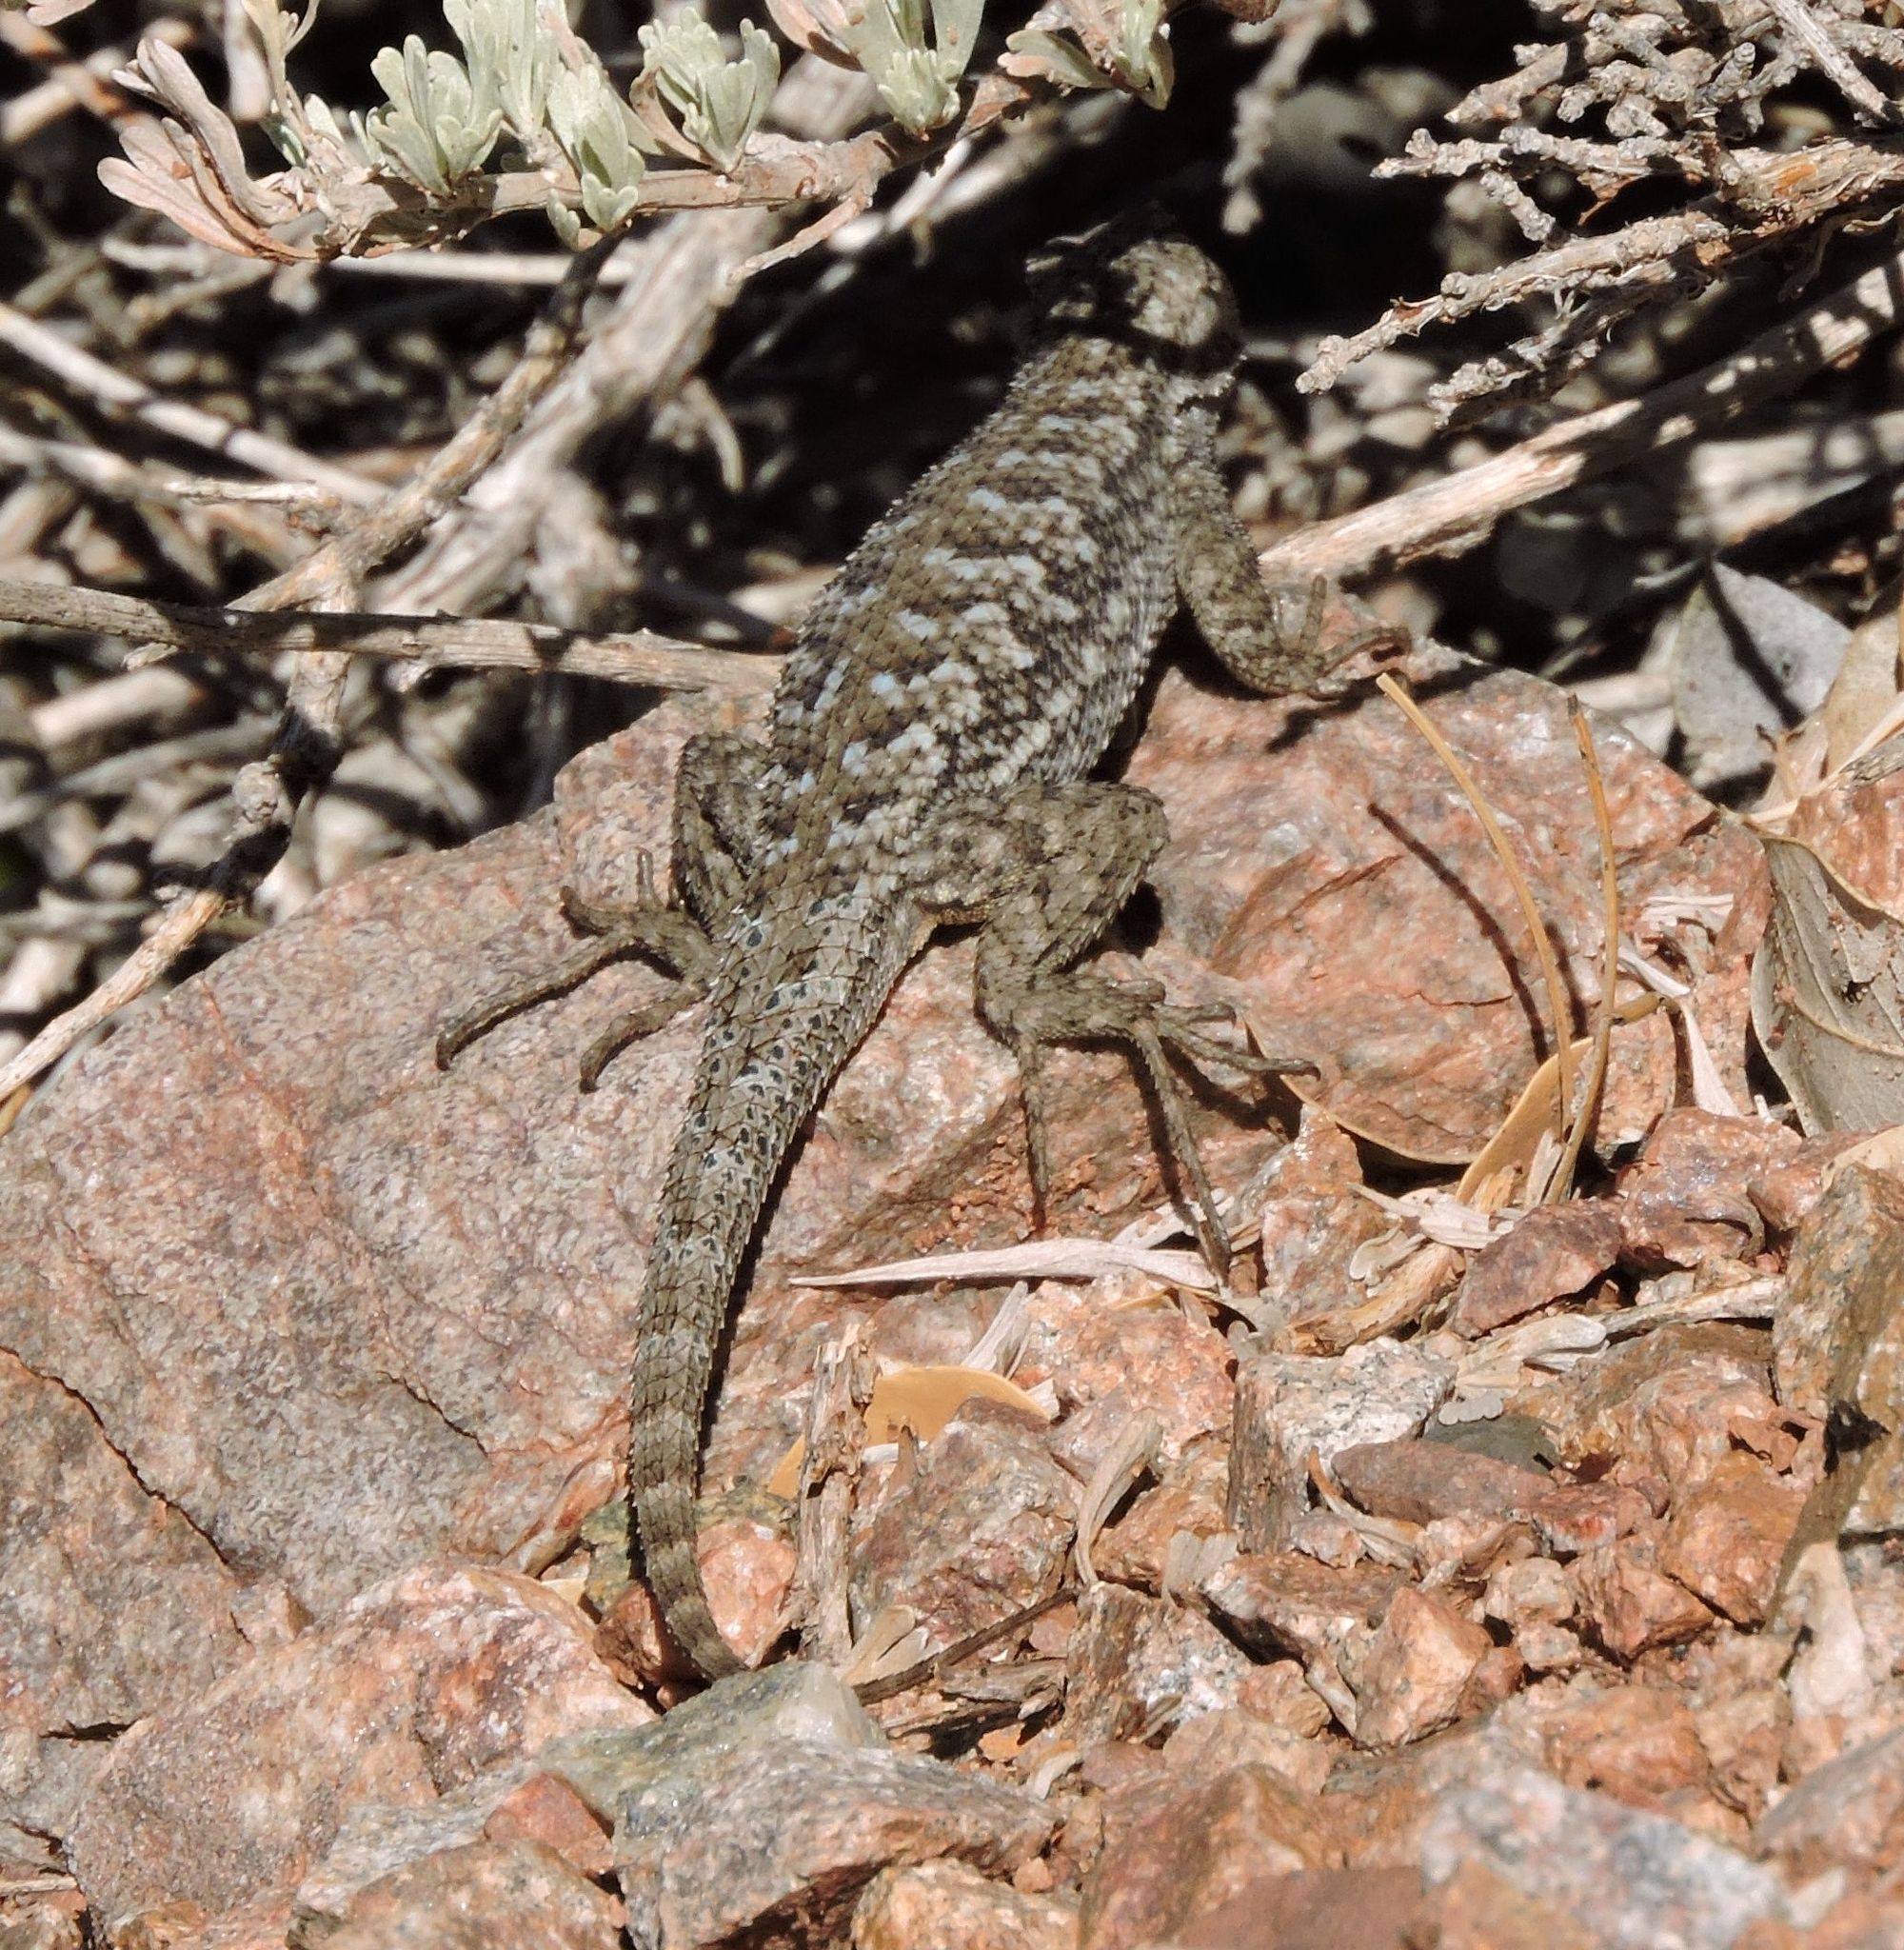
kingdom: Animalia
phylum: Chordata
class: Squamata
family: Phrynosomatidae
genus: Sceloporus
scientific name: Sceloporus occidentalis
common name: Western fence lizard
